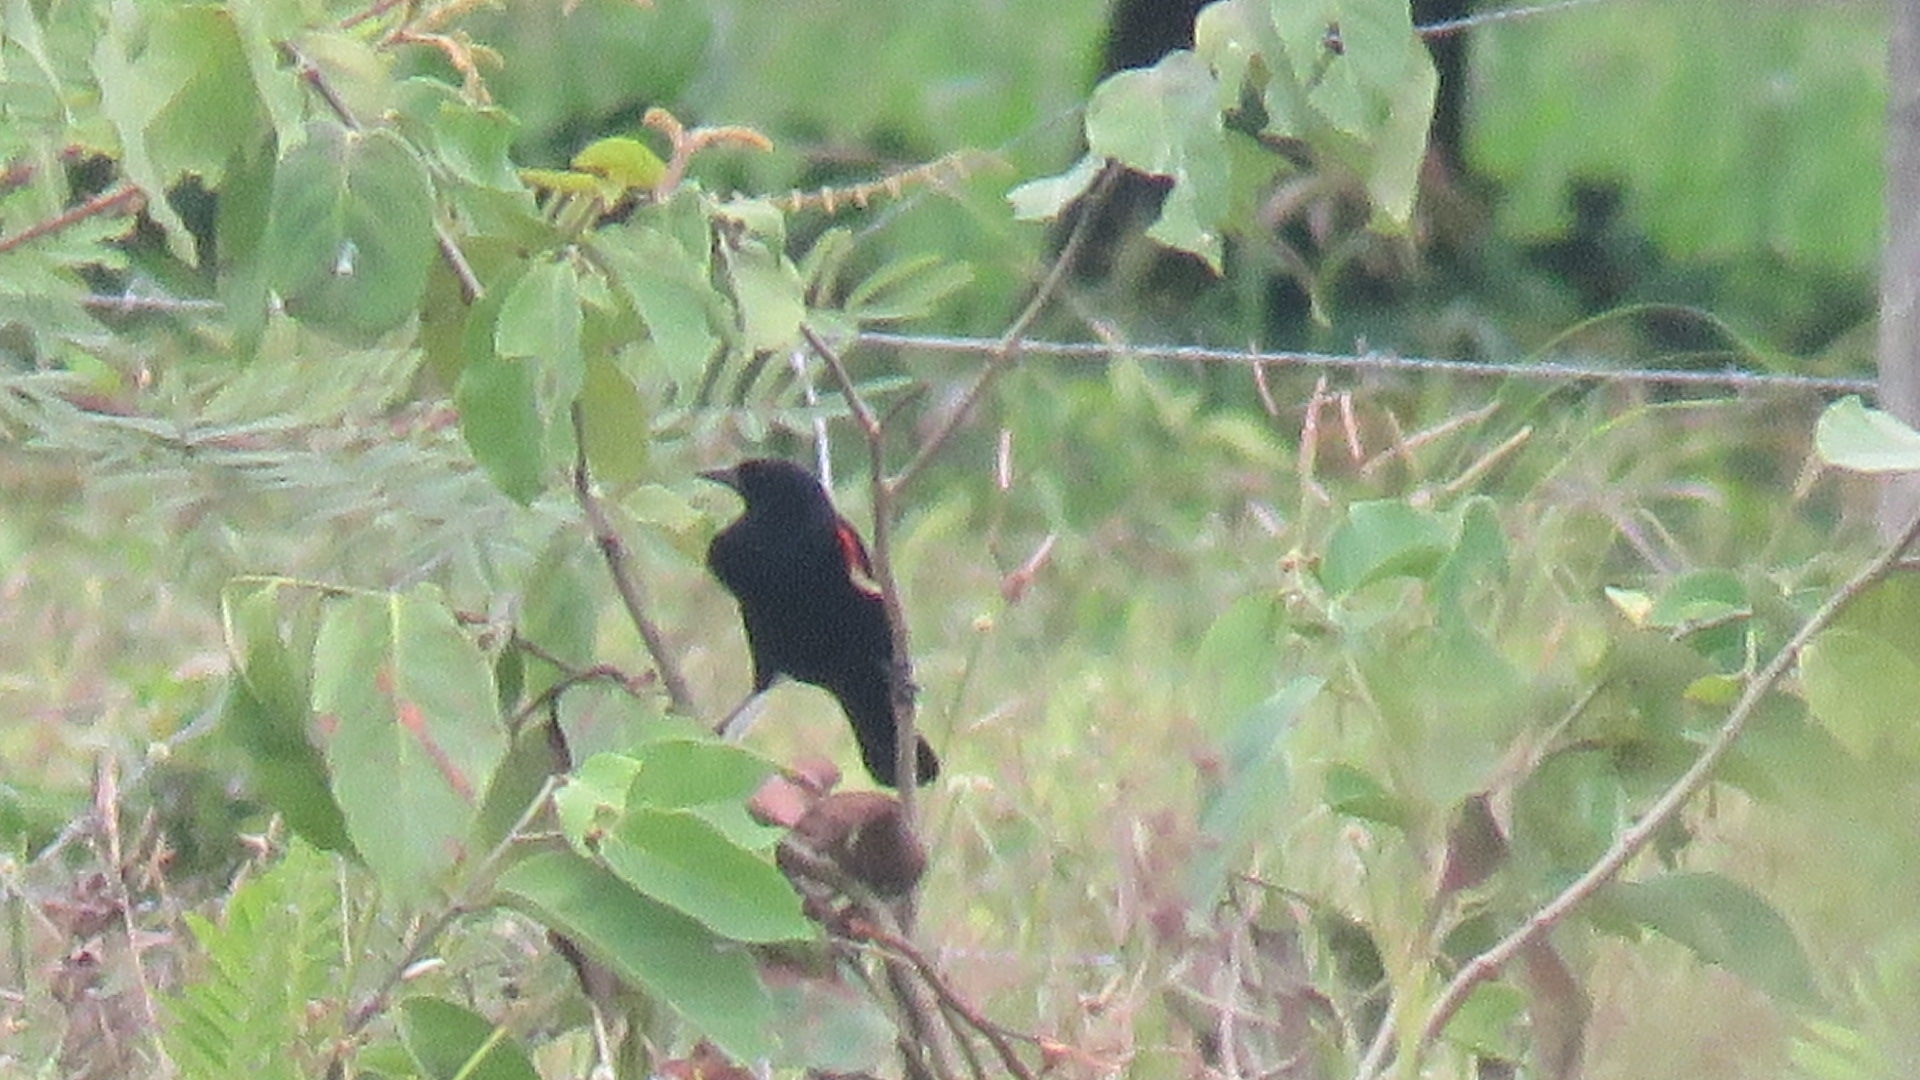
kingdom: Animalia
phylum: Chordata
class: Aves
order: Passeriformes
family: Icteridae
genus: Agelaius
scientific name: Agelaius phoeniceus
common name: Red-winged blackbird
